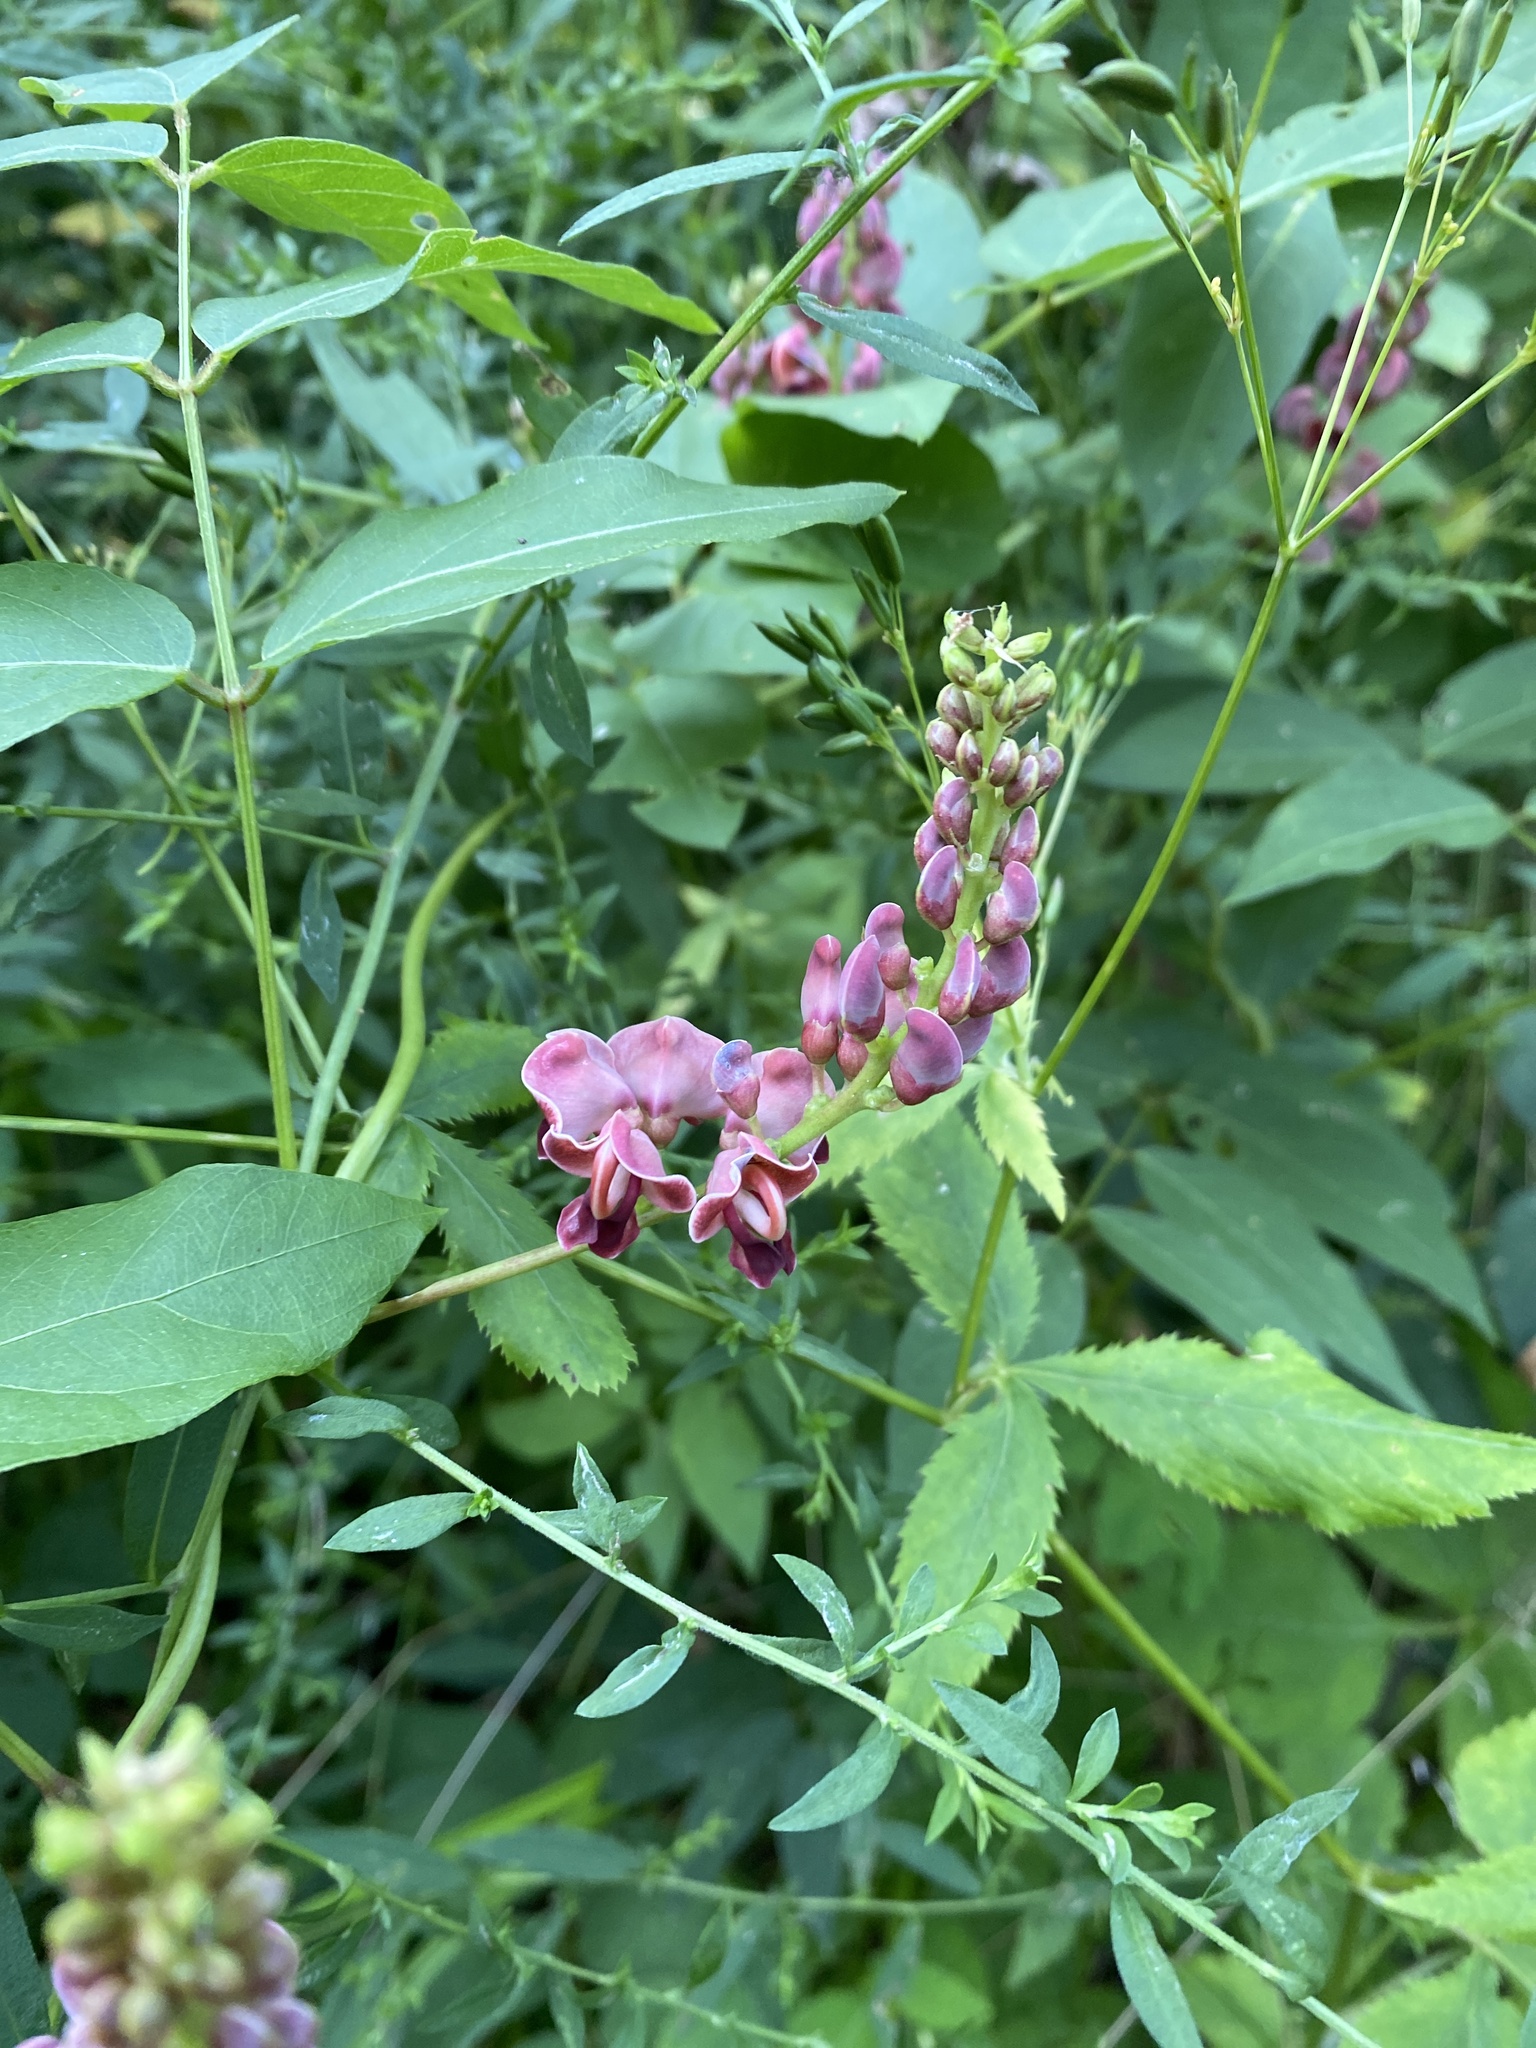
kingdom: Plantae
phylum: Tracheophyta
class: Magnoliopsida
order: Fabales
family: Fabaceae
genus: Apios
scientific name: Apios americana
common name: American potato-bean
